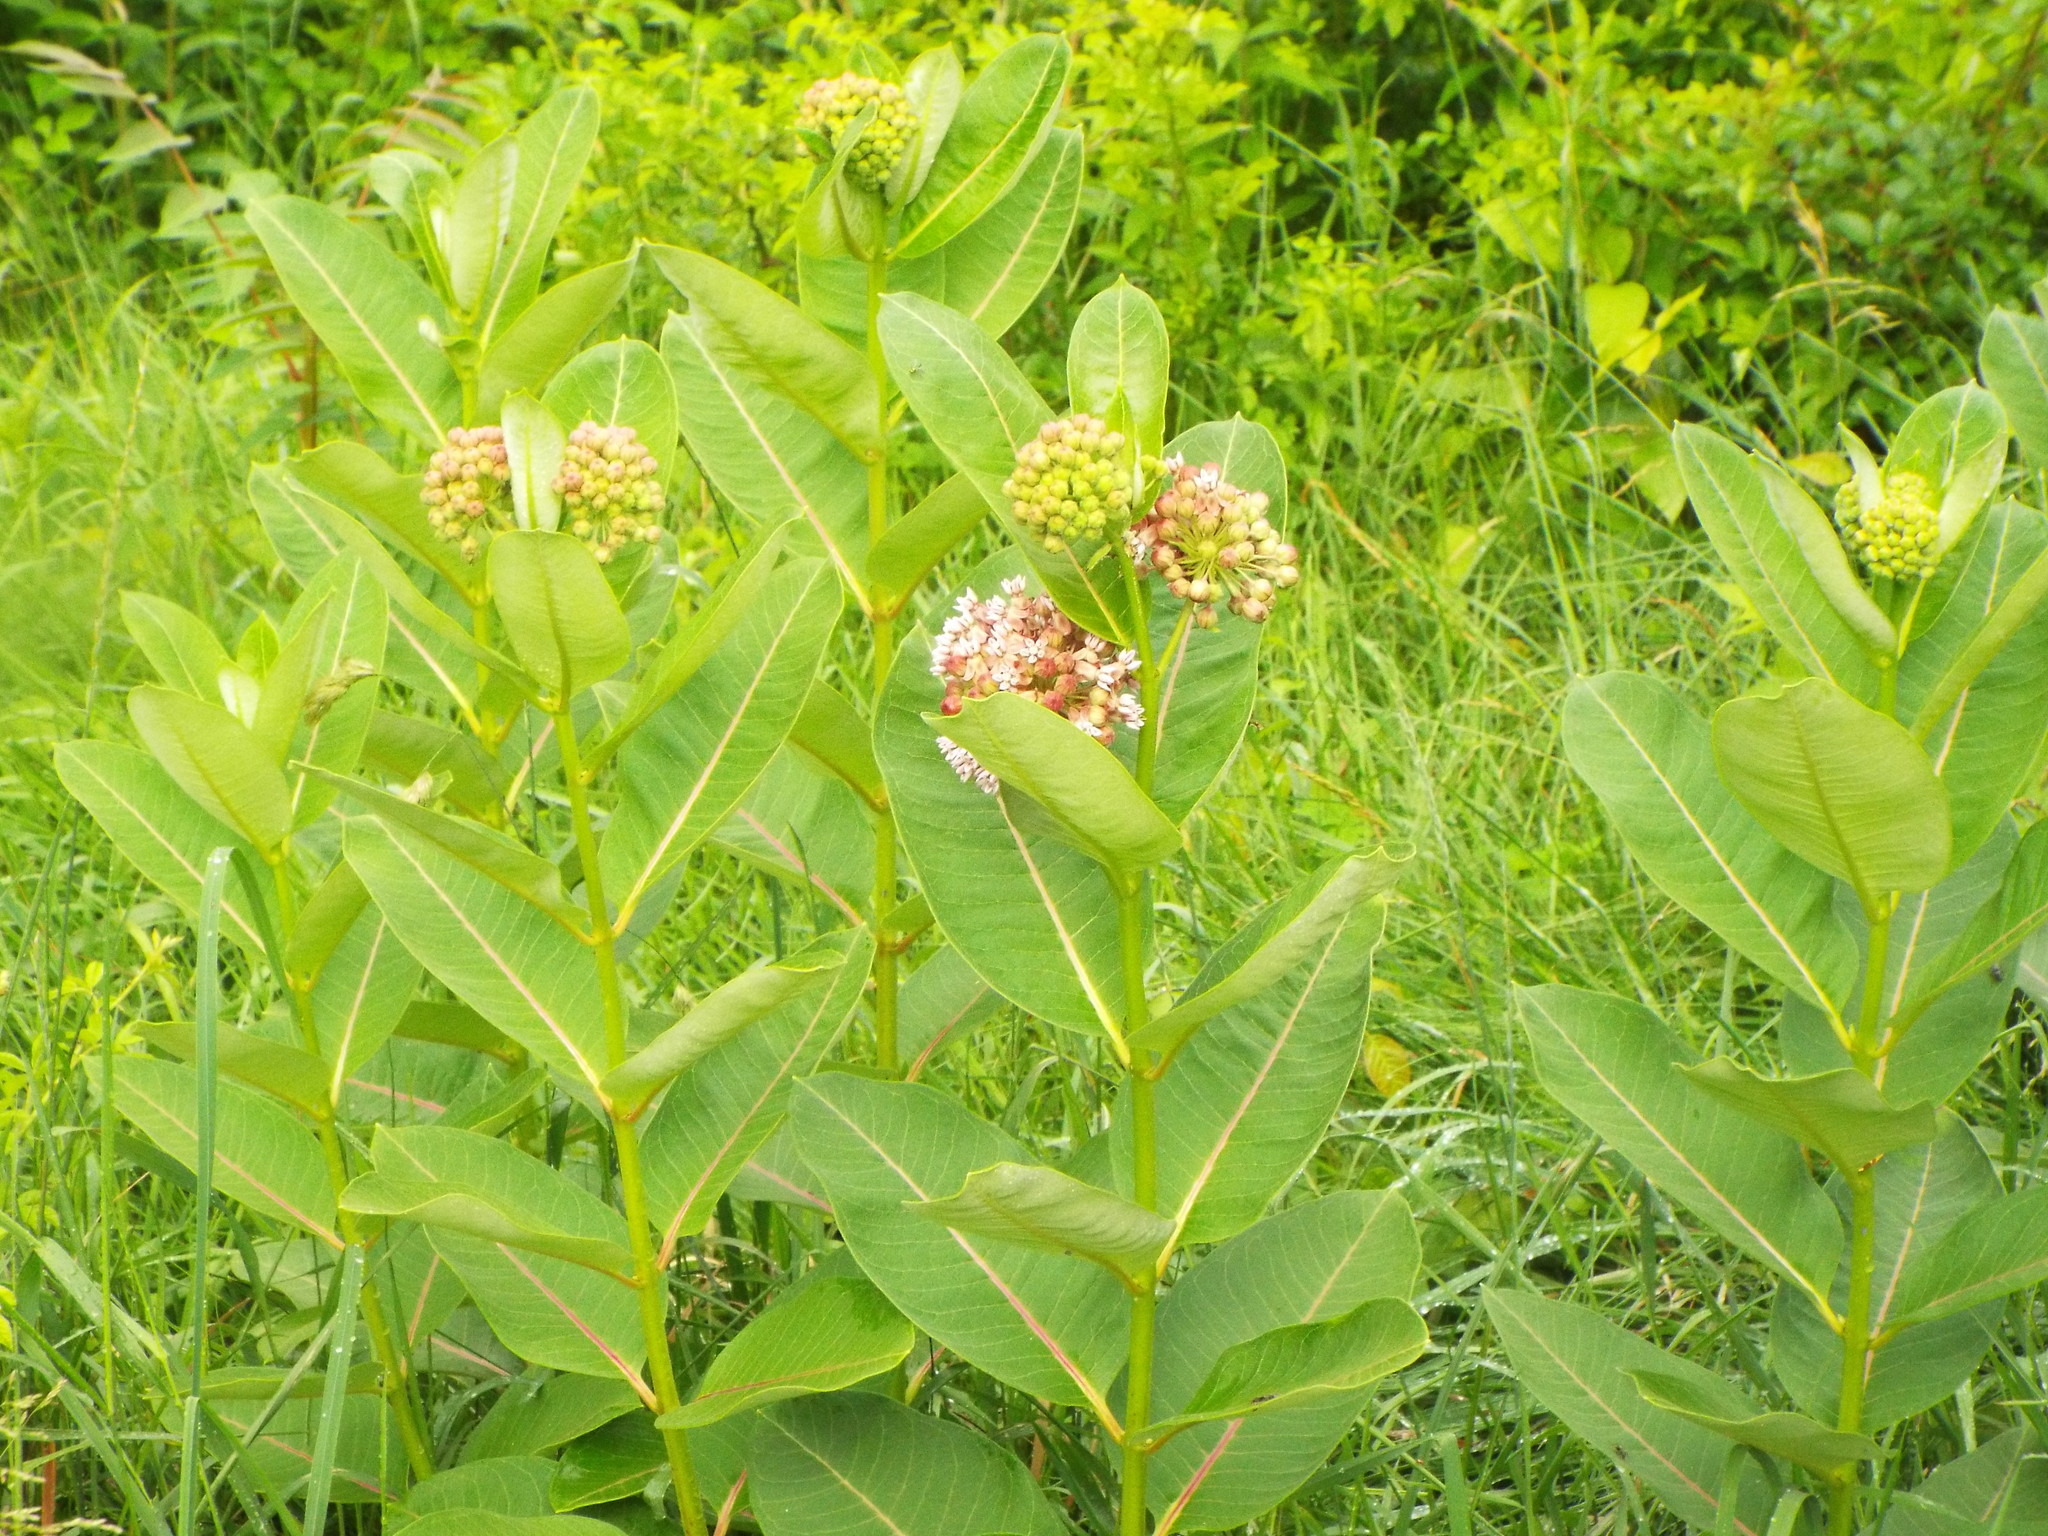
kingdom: Plantae
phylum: Tracheophyta
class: Magnoliopsida
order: Gentianales
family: Apocynaceae
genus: Asclepias
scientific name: Asclepias syriaca
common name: Common milkweed
